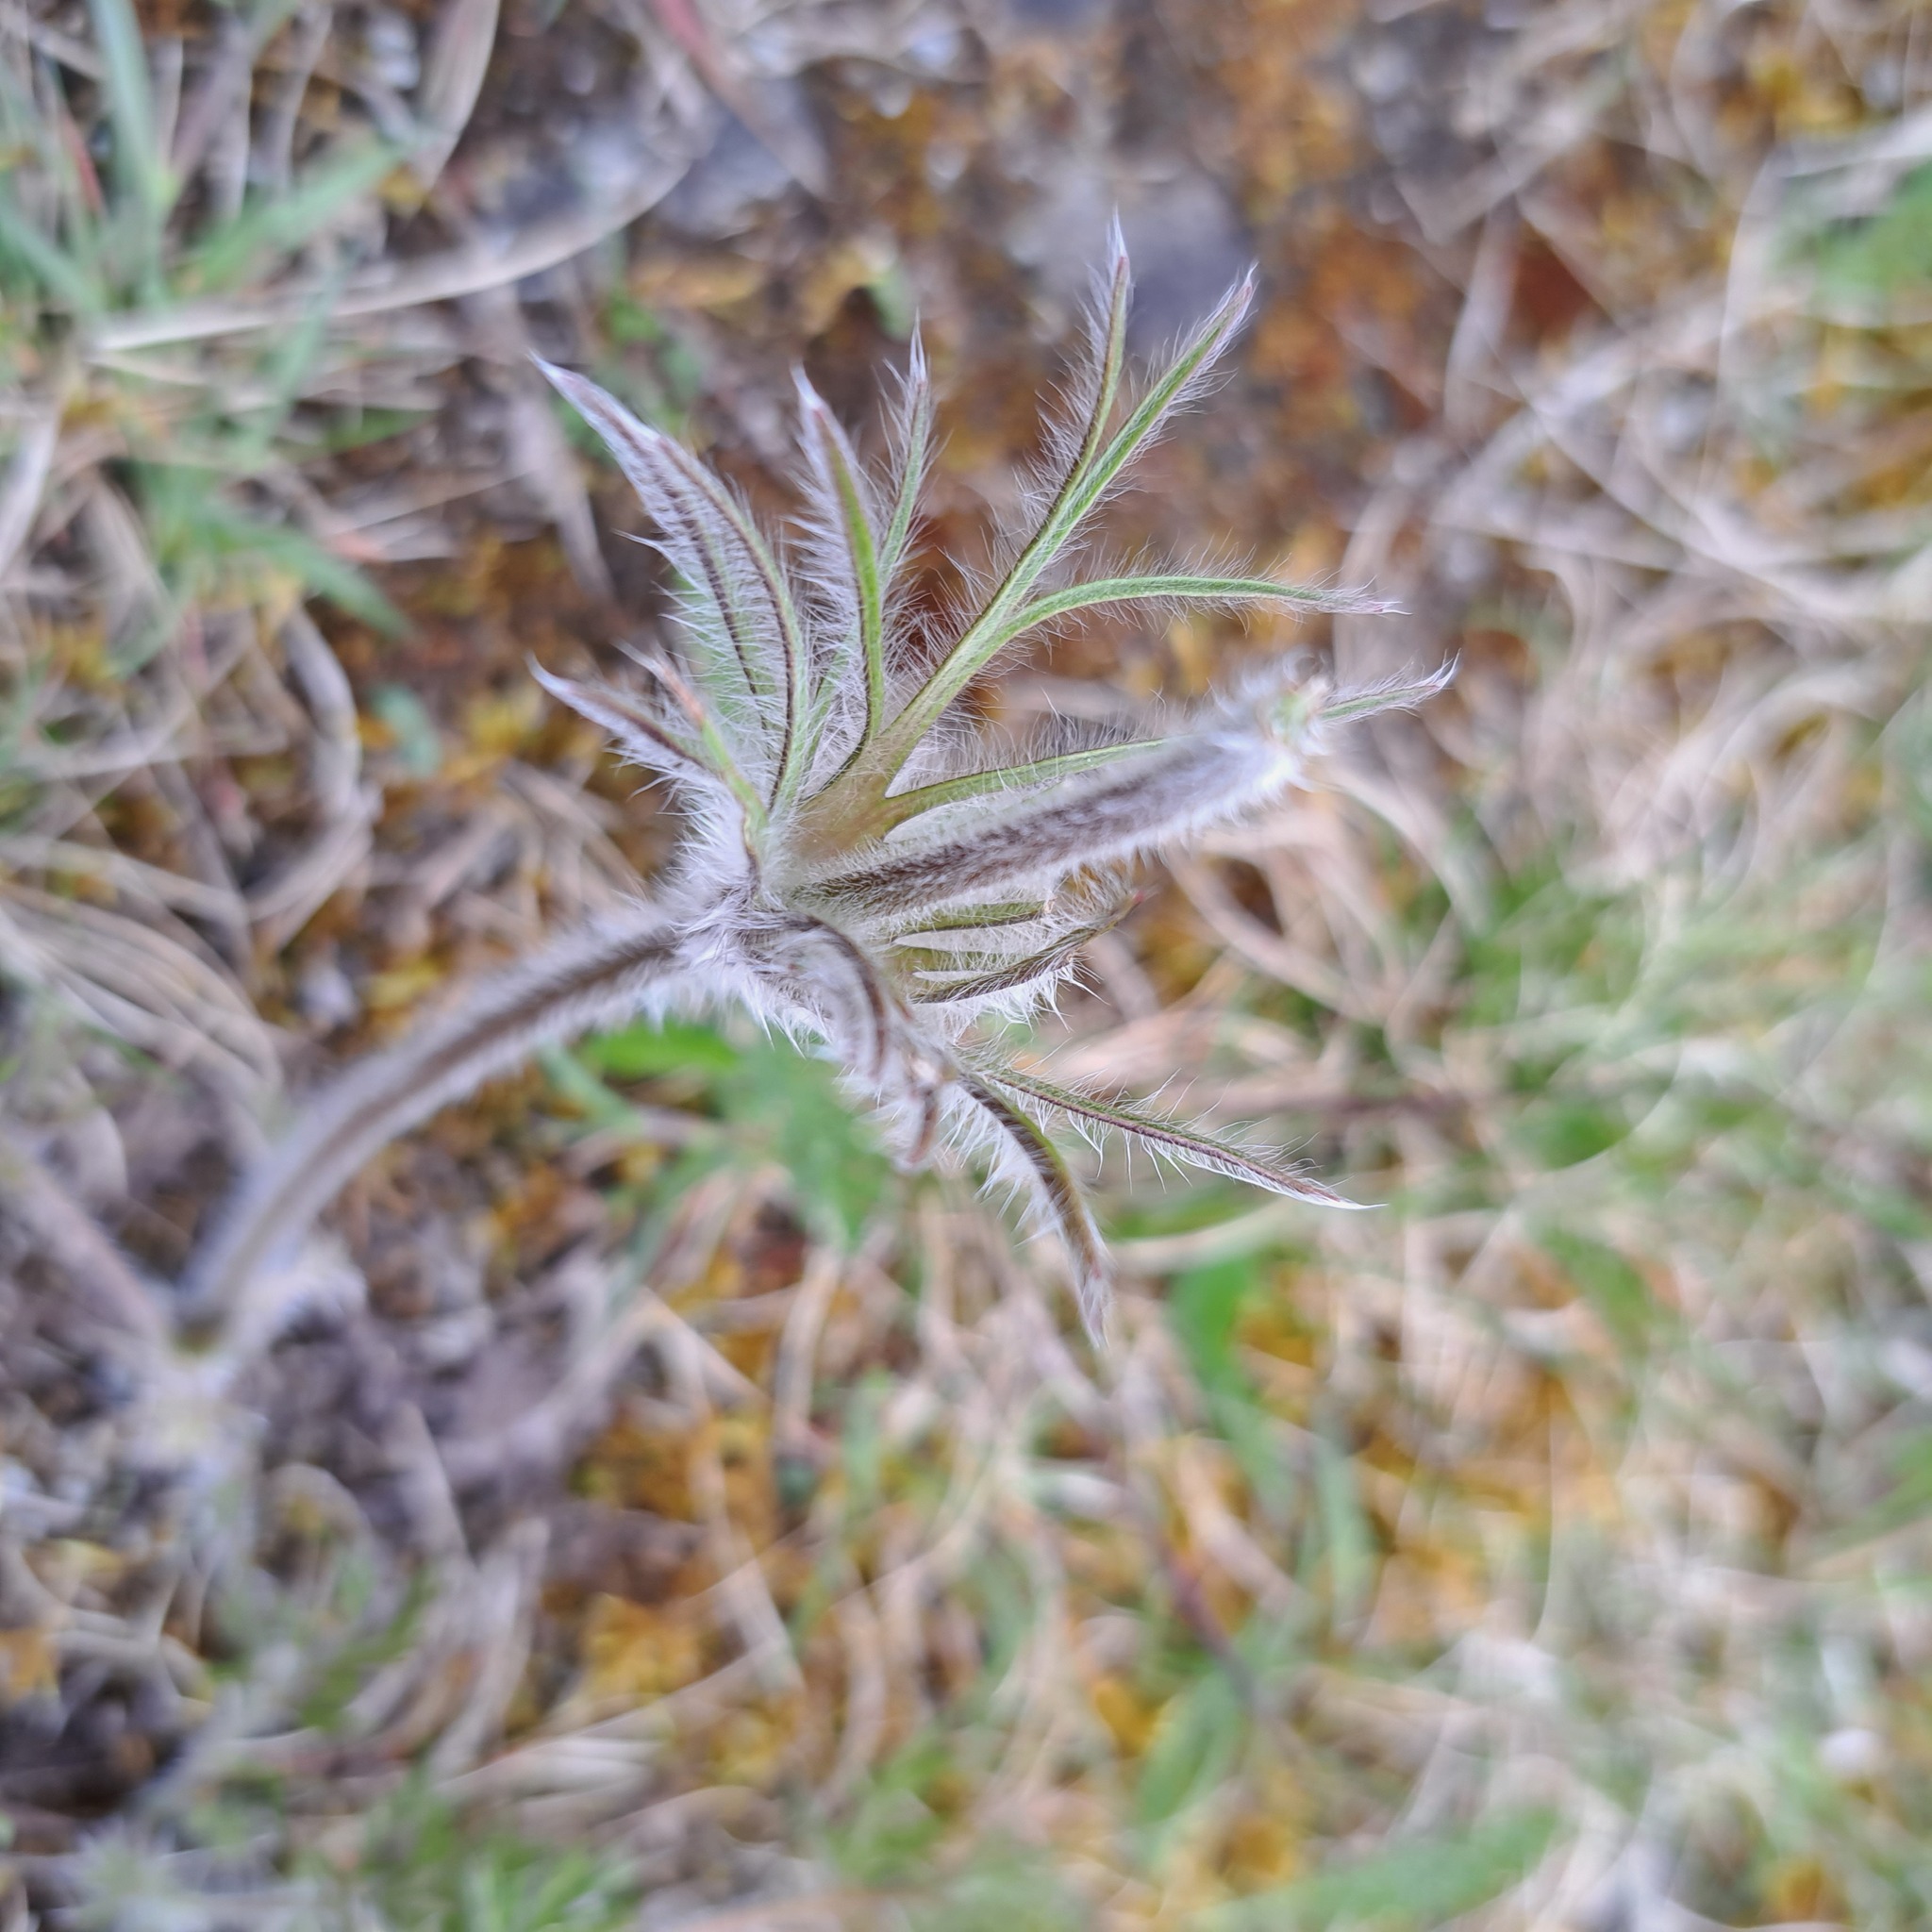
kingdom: Plantae
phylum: Tracheophyta
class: Magnoliopsida
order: Ranunculales
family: Ranunculaceae
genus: Pulsatilla
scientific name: Pulsatilla vulgaris
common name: Pasqueflower
